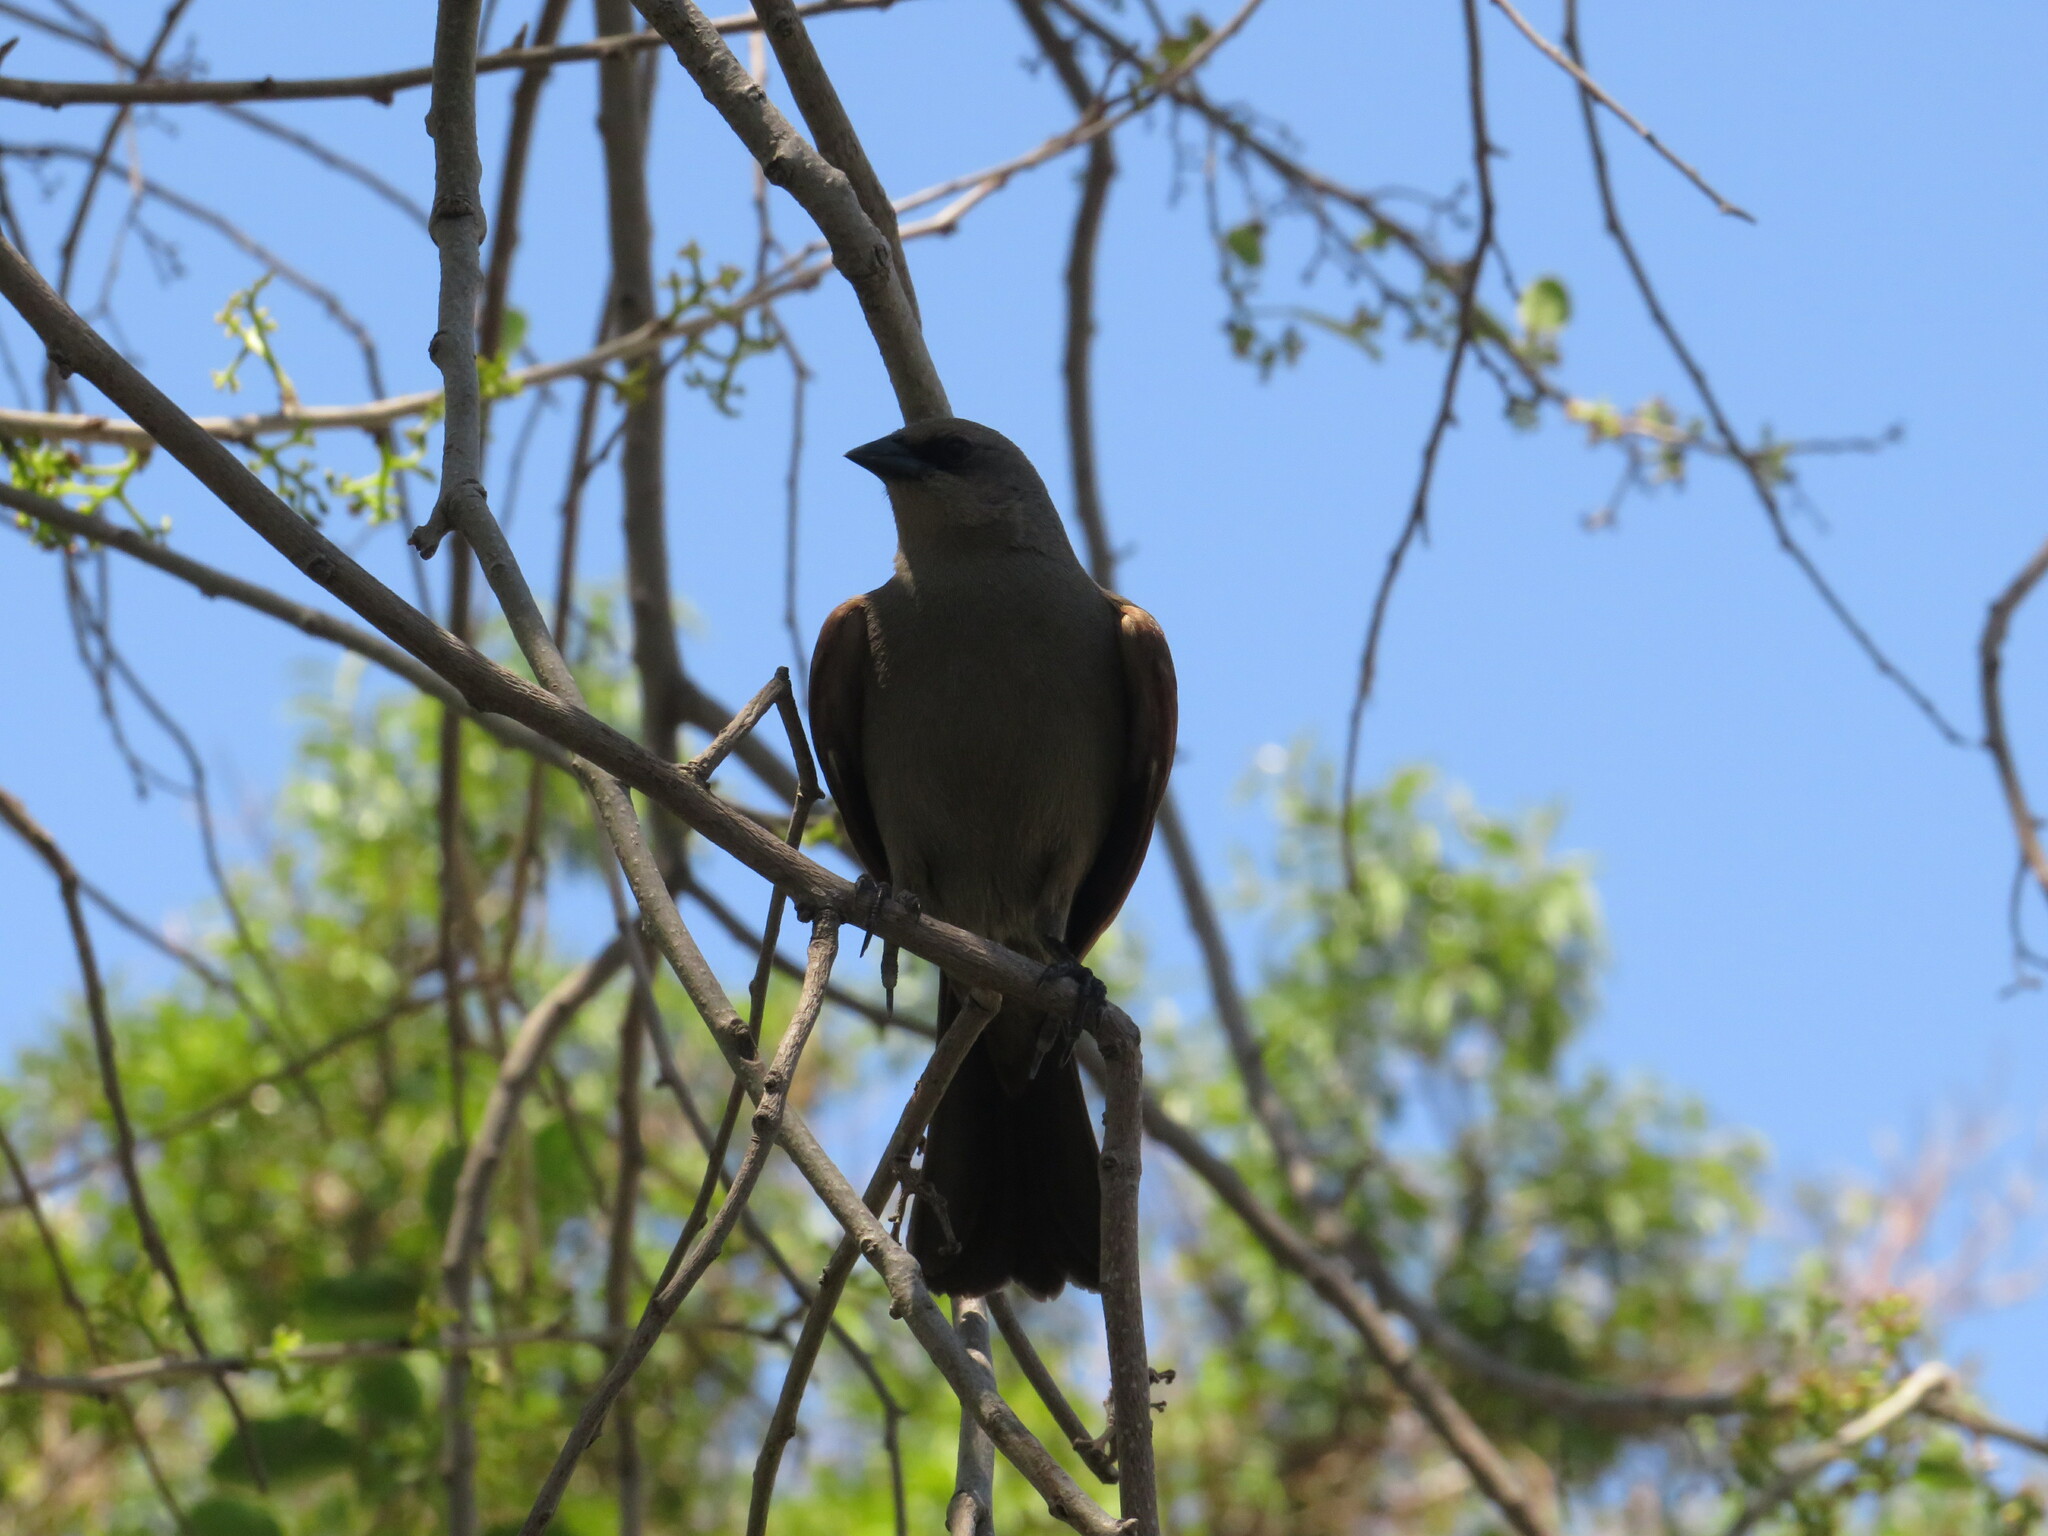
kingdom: Animalia
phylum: Chordata
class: Aves
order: Passeriformes
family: Icteridae
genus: Agelaioides
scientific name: Agelaioides badius
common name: Baywing
